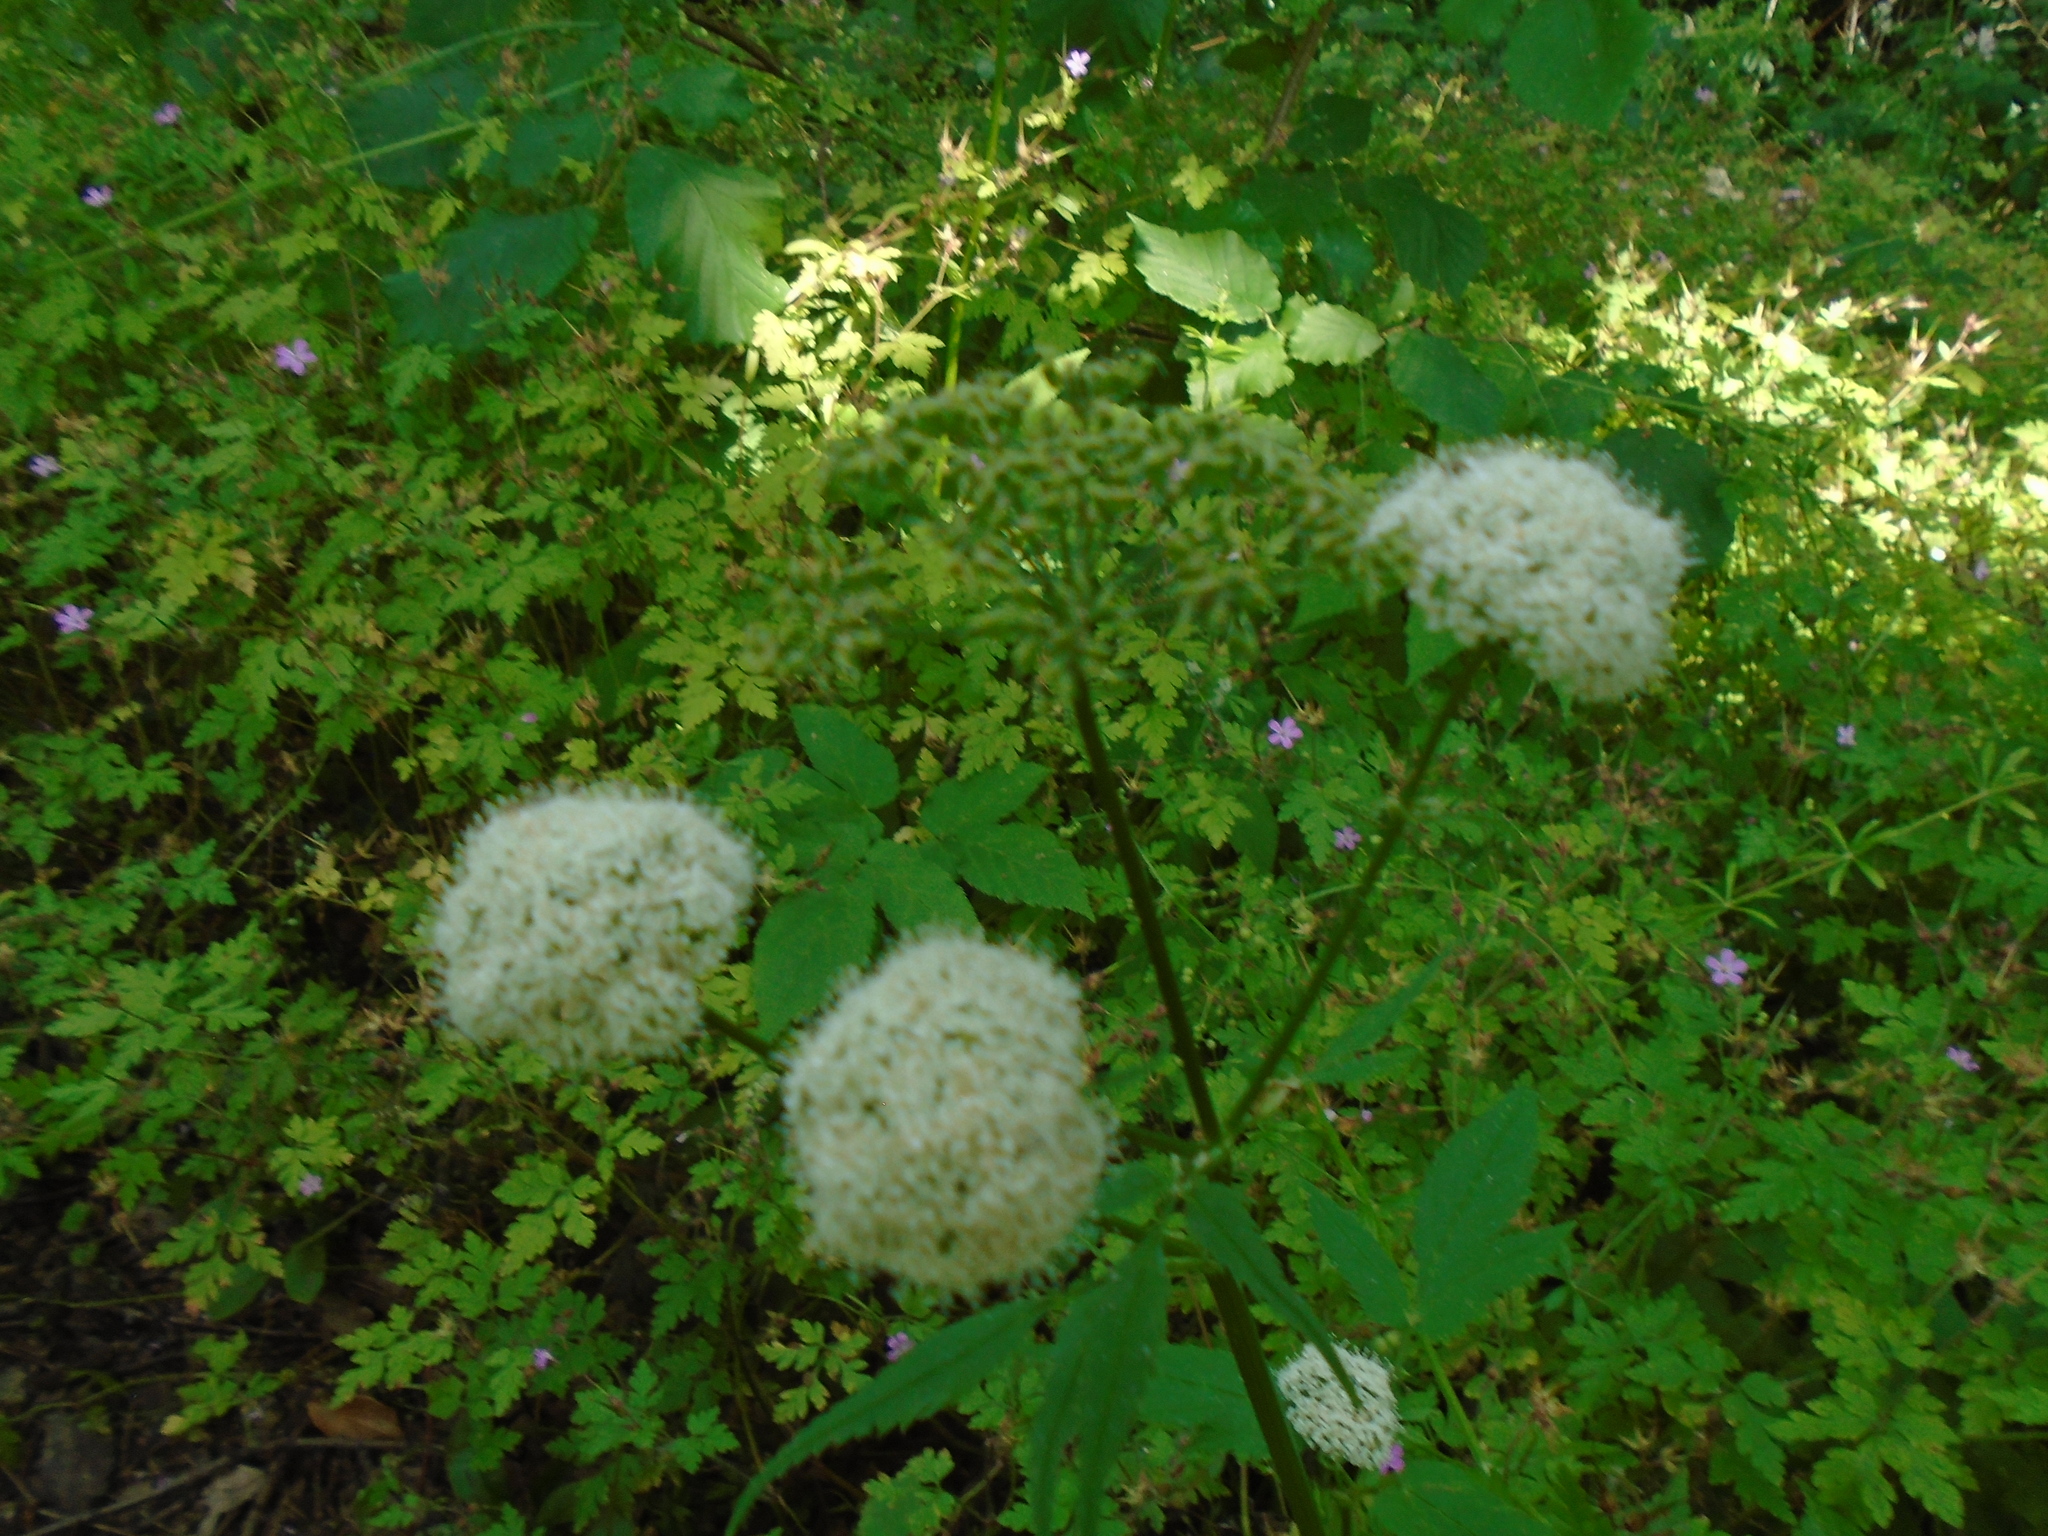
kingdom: Plantae
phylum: Tracheophyta
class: Magnoliopsida
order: Apiales
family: Apiaceae
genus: Aegopodium
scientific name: Aegopodium podagraria
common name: Ground-elder
